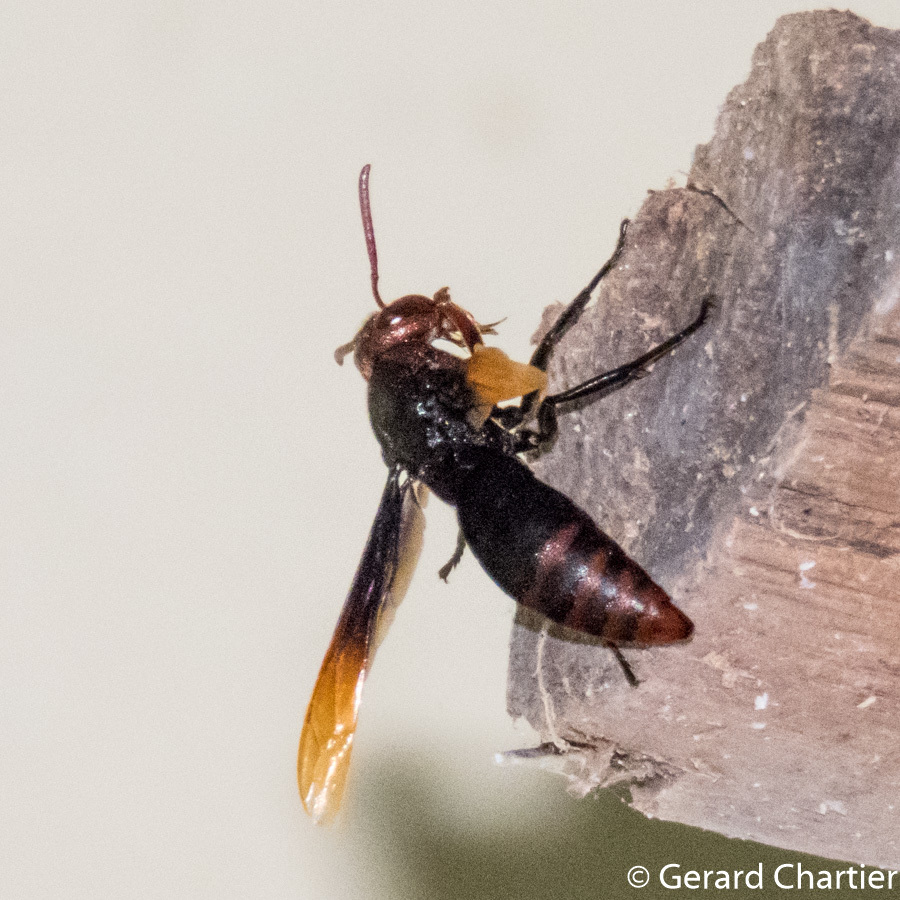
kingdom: Animalia
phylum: Arthropoda
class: Insecta
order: Hymenoptera
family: Eumenidae
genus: Rhynchium
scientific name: Rhynchium haemorrhoidale
